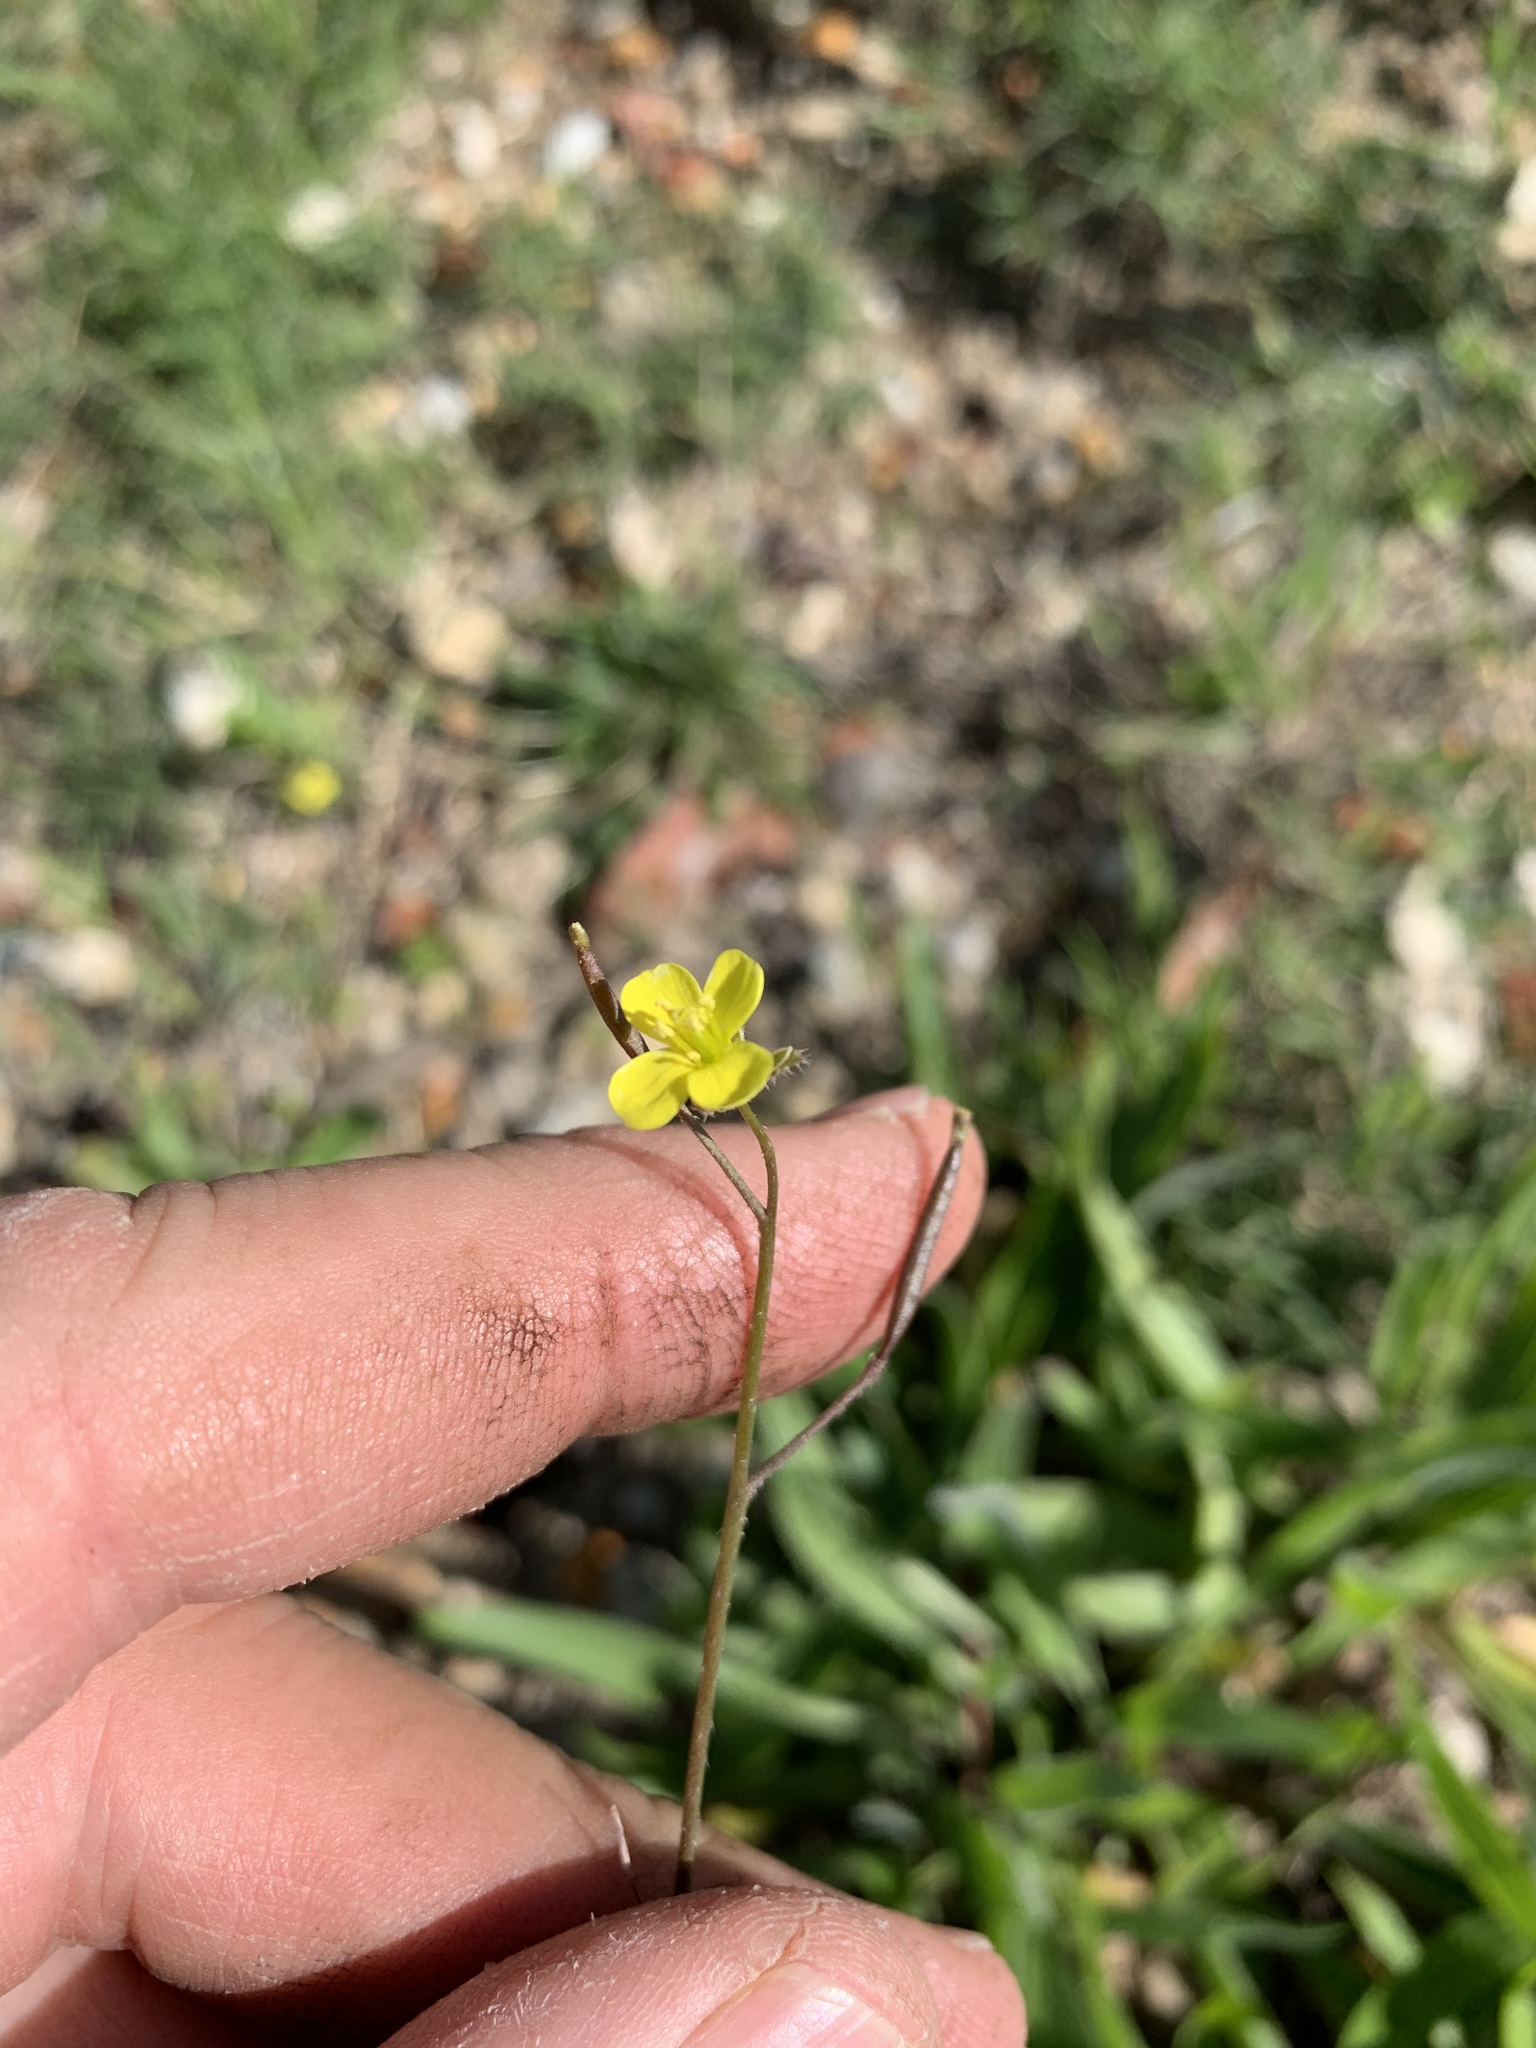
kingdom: Plantae
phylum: Tracheophyta
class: Magnoliopsida
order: Brassicales
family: Brassicaceae
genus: Diplotaxis
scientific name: Diplotaxis muralis
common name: Annual wall-rocket
